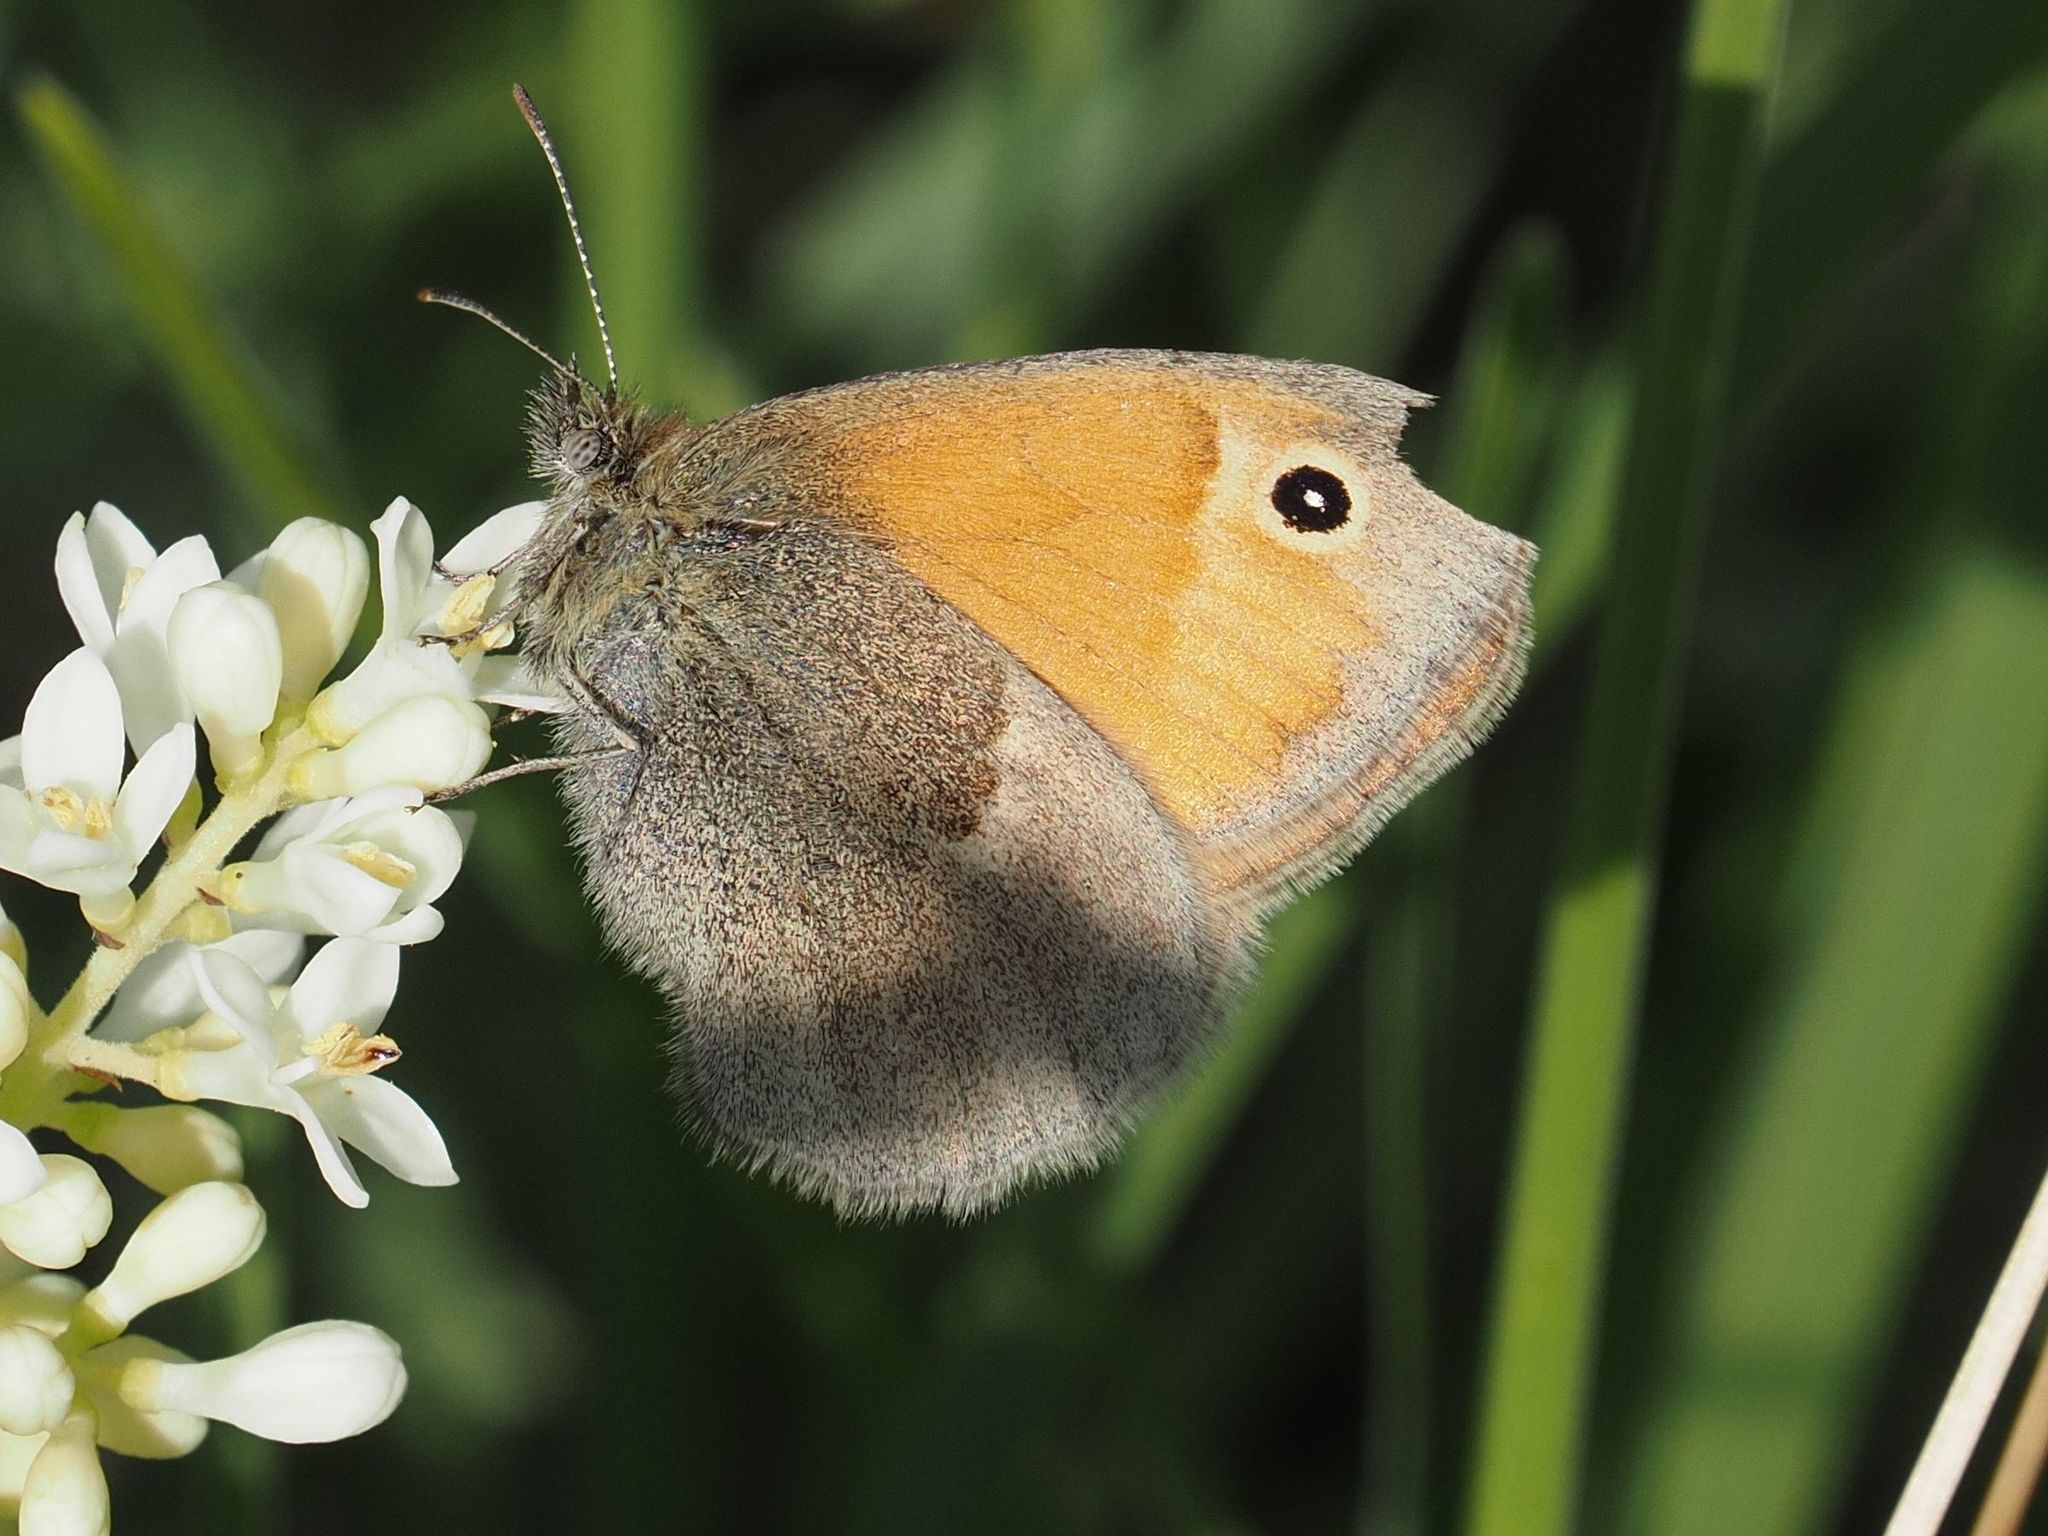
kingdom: Animalia
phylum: Arthropoda
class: Insecta
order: Lepidoptera
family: Nymphalidae
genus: Coenonympha
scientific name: Coenonympha pamphilus
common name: Small heath
